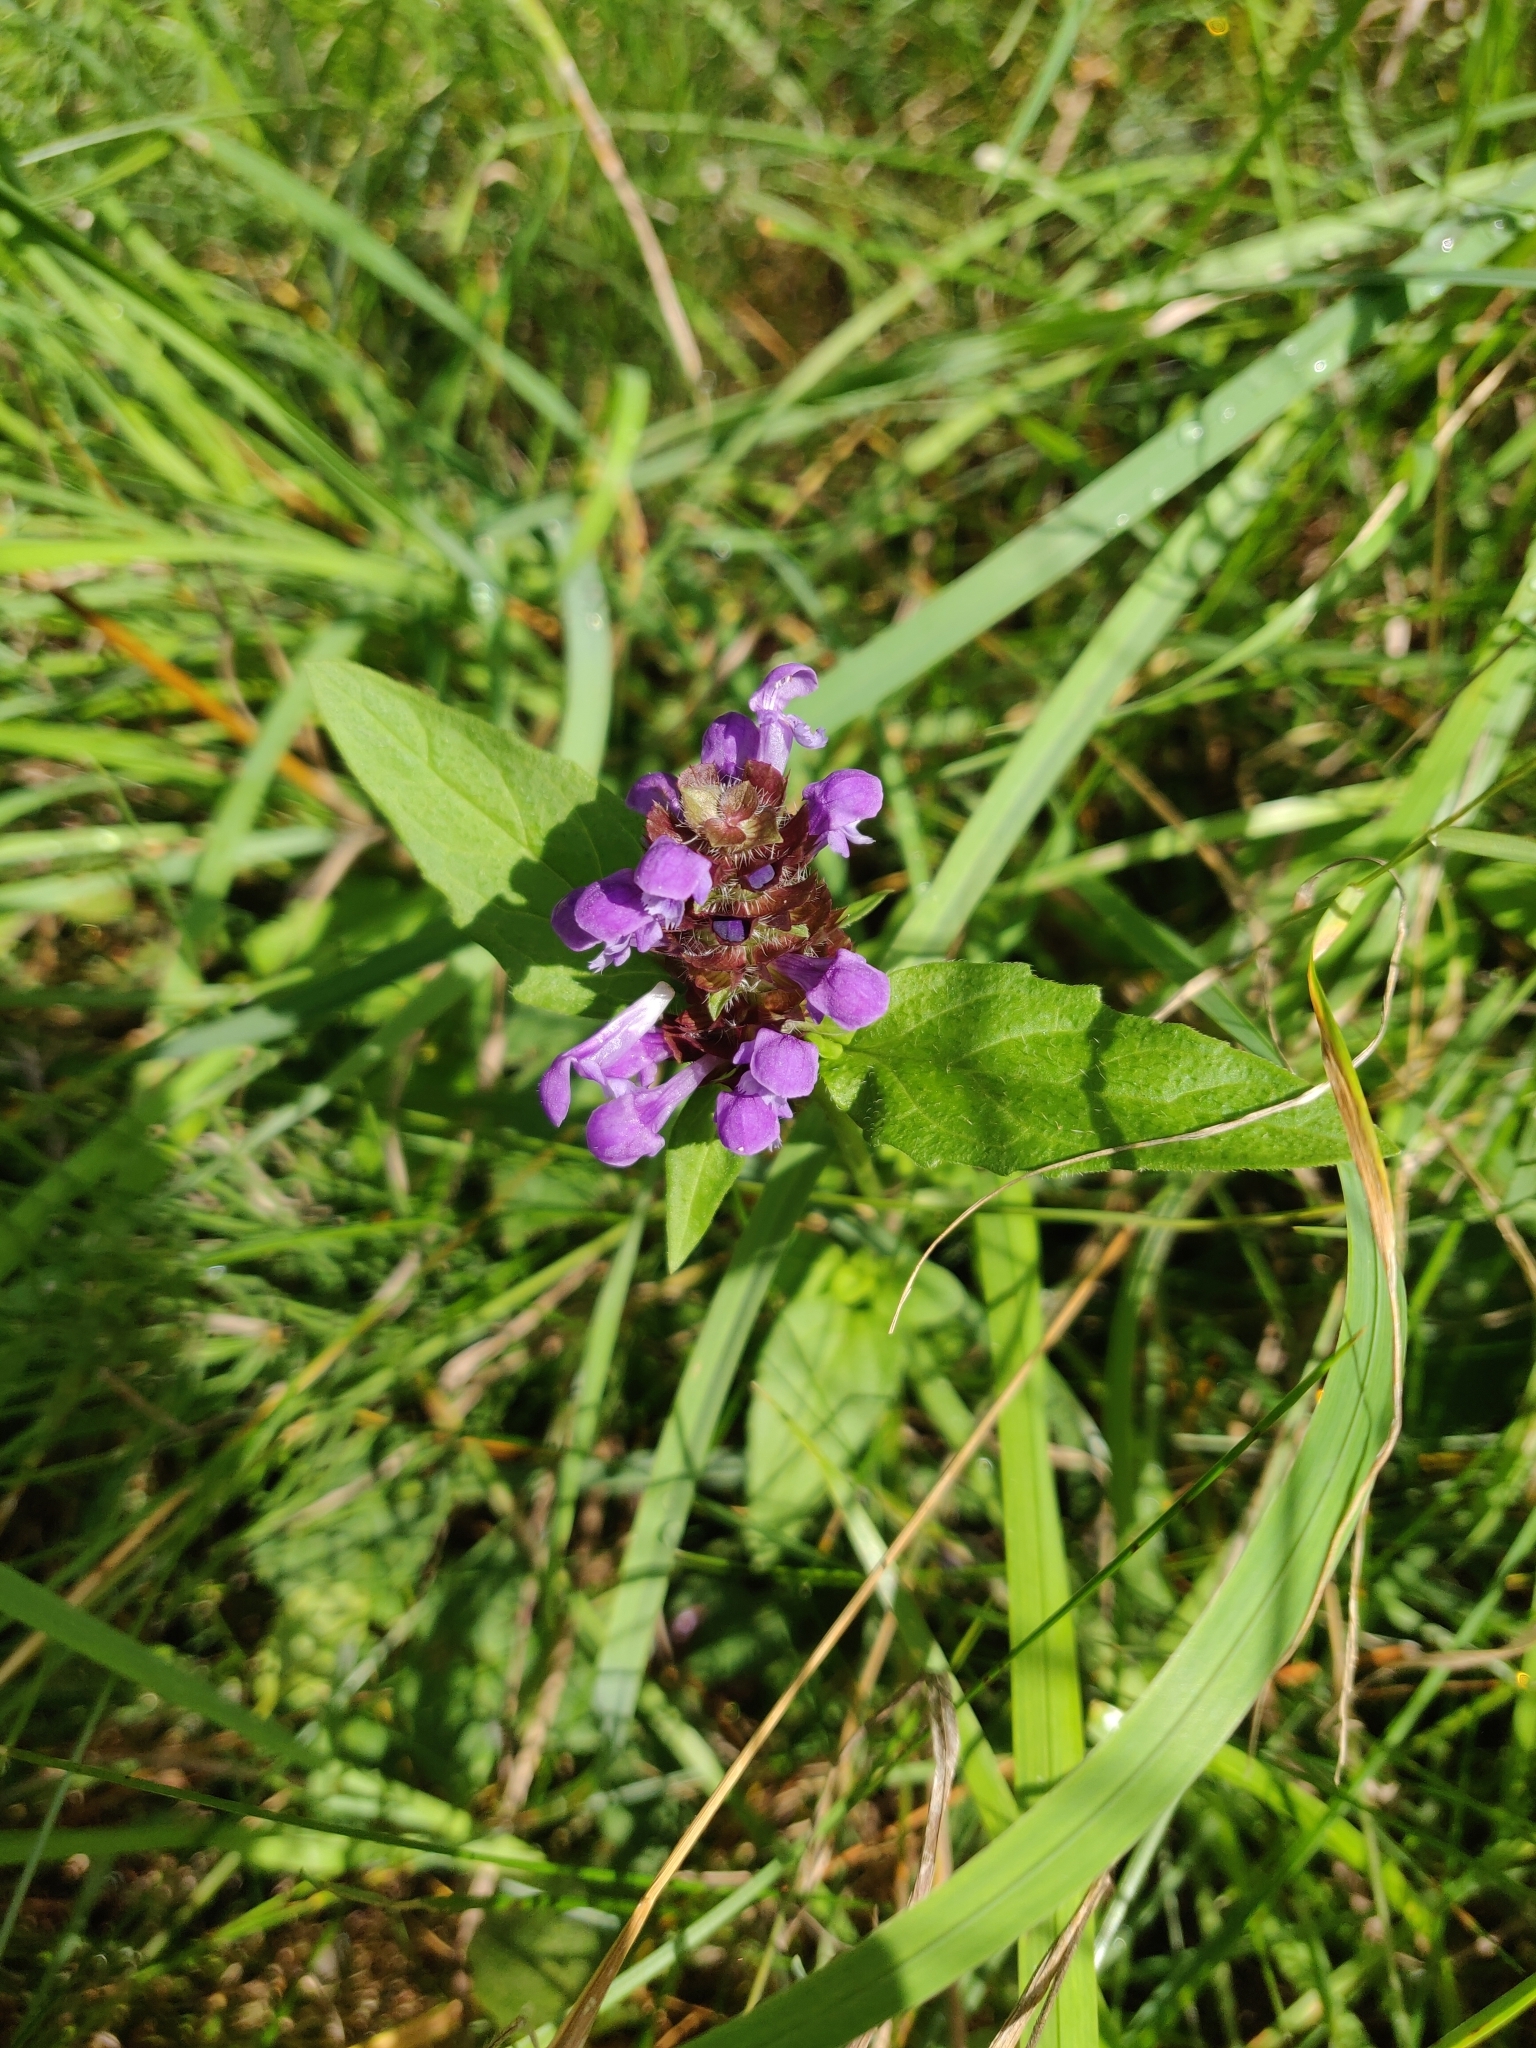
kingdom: Plantae
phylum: Tracheophyta
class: Magnoliopsida
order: Lamiales
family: Lamiaceae
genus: Prunella
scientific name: Prunella vulgaris
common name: Heal-all
